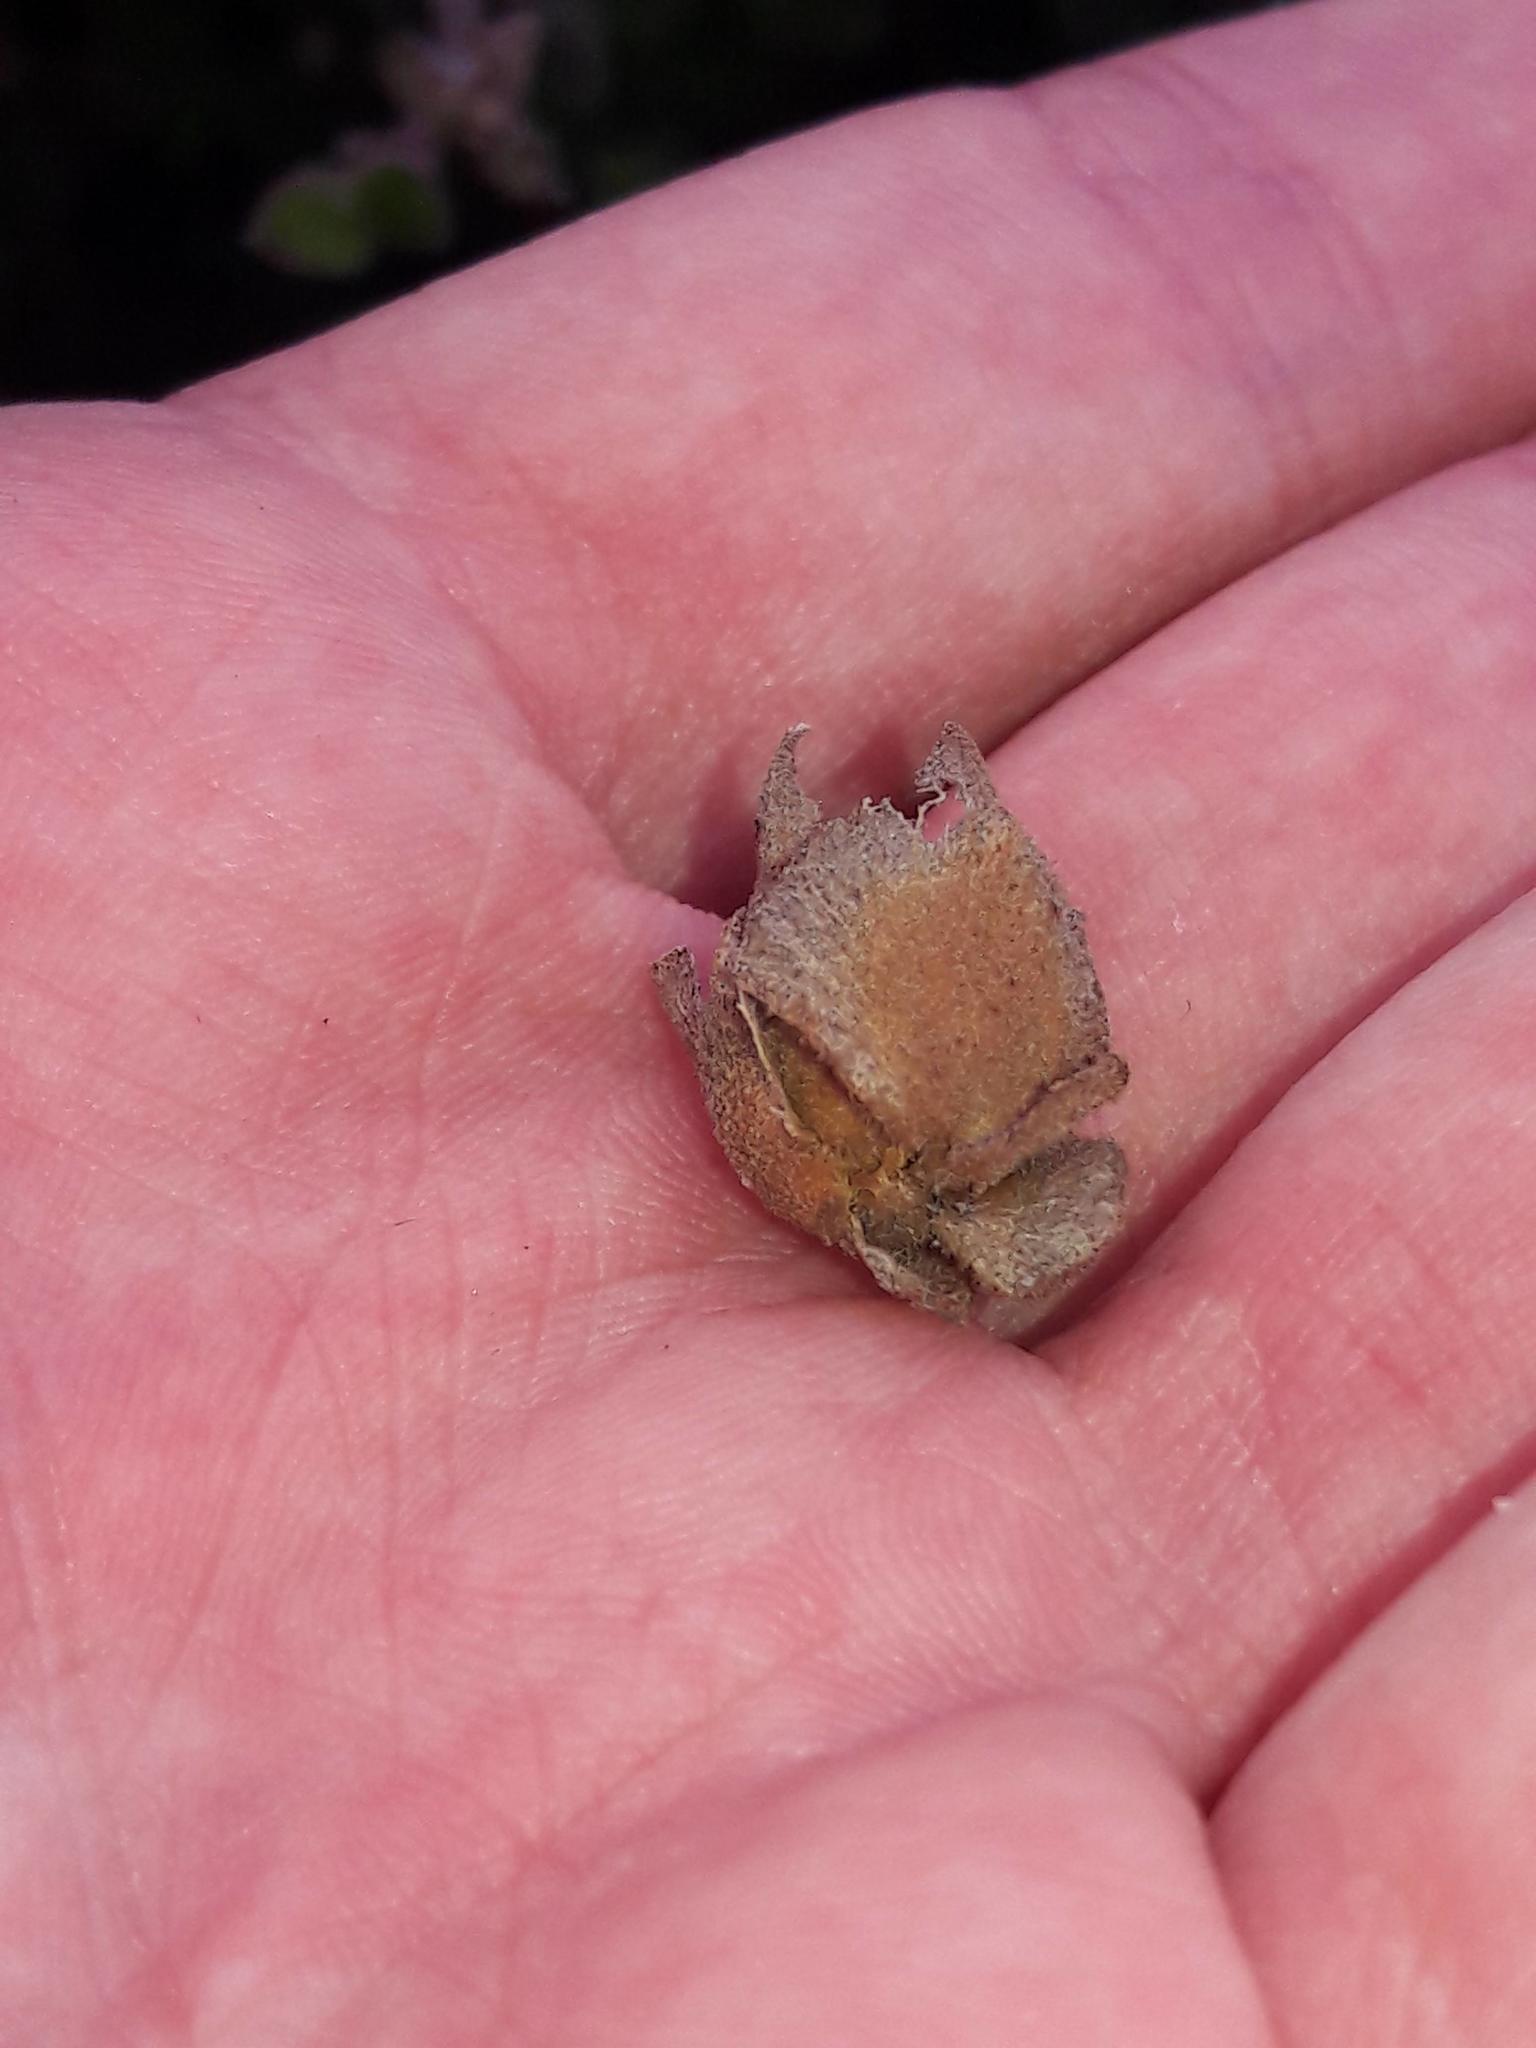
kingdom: Plantae
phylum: Tracheophyta
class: Magnoliopsida
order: Malvales
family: Cistaceae
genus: Cistus
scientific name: Cistus salviifolius
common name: Salvia cistus
